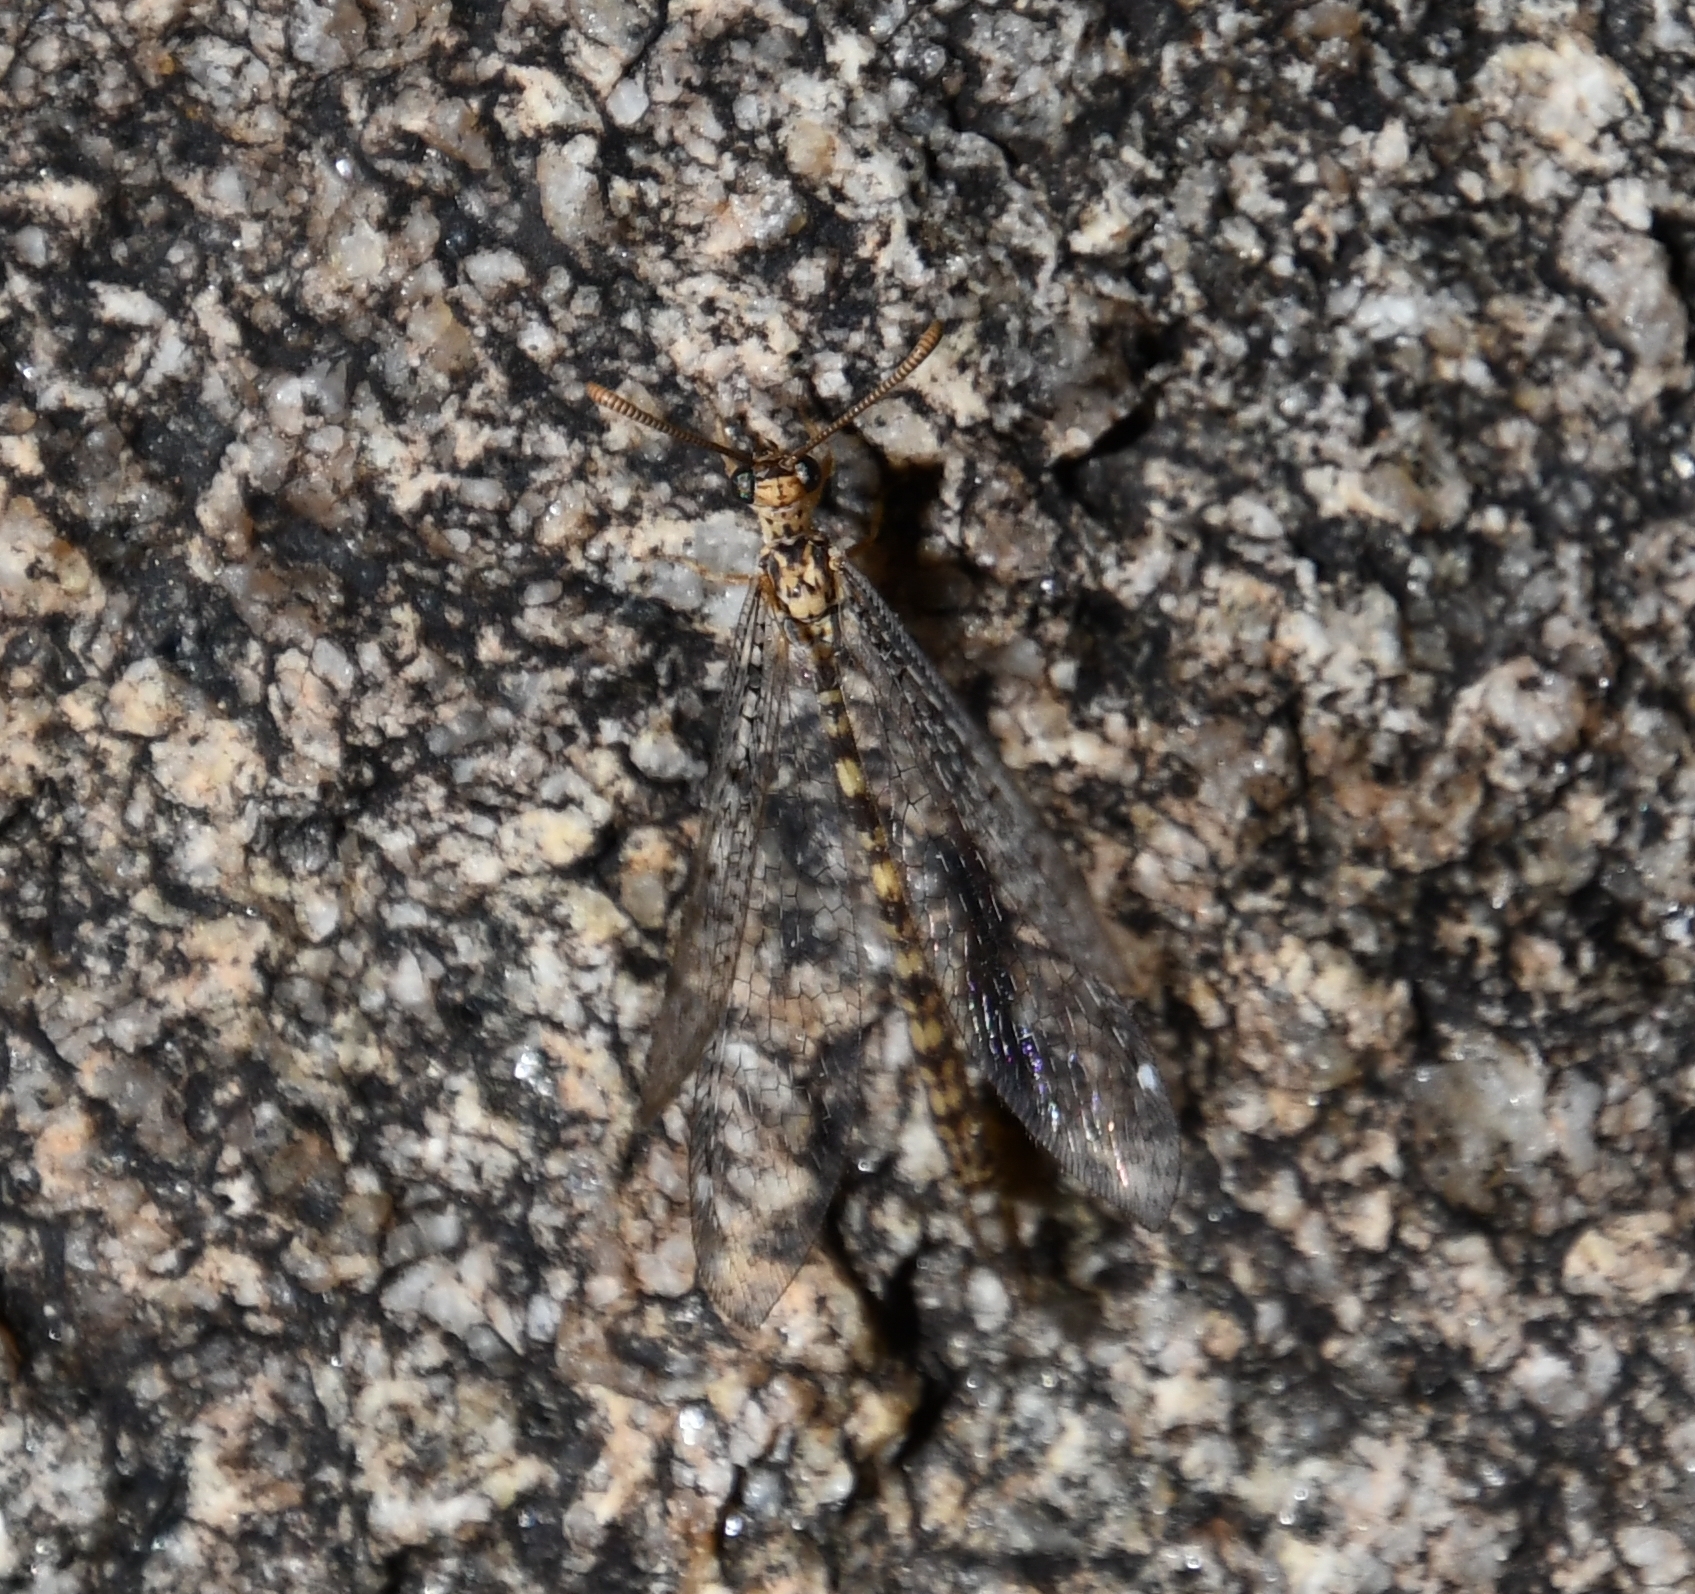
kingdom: Animalia
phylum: Arthropoda
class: Insecta
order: Neuroptera
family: Myrmeleontidae
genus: Scotoleon
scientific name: Scotoleon expansus
